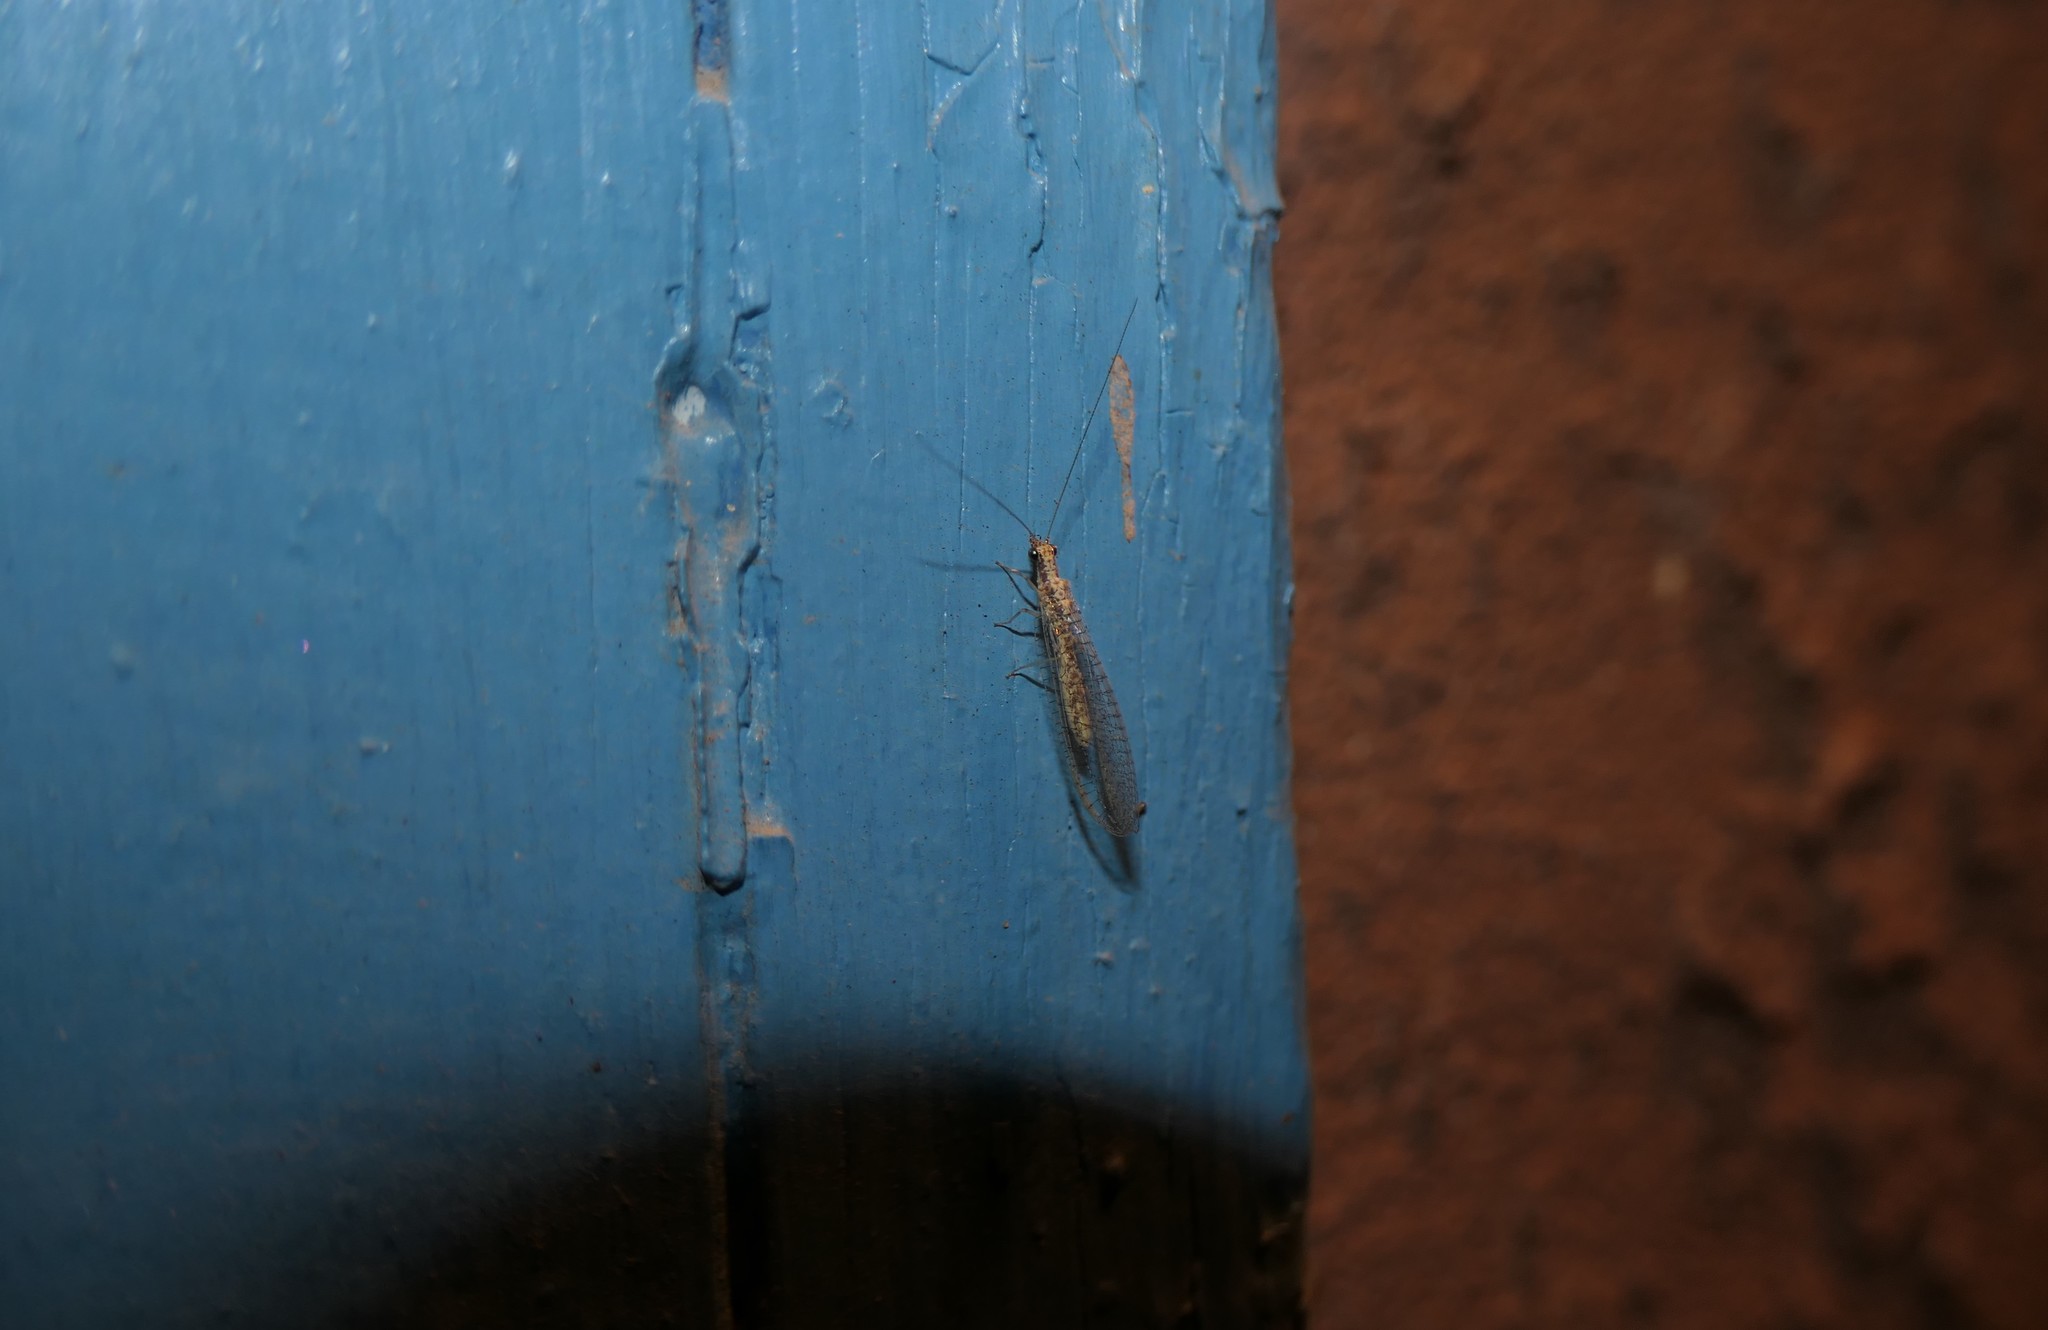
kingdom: Animalia
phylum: Arthropoda
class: Insecta
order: Neuroptera
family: Chrysopidae
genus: Eremochrysa
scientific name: Eremochrysa
